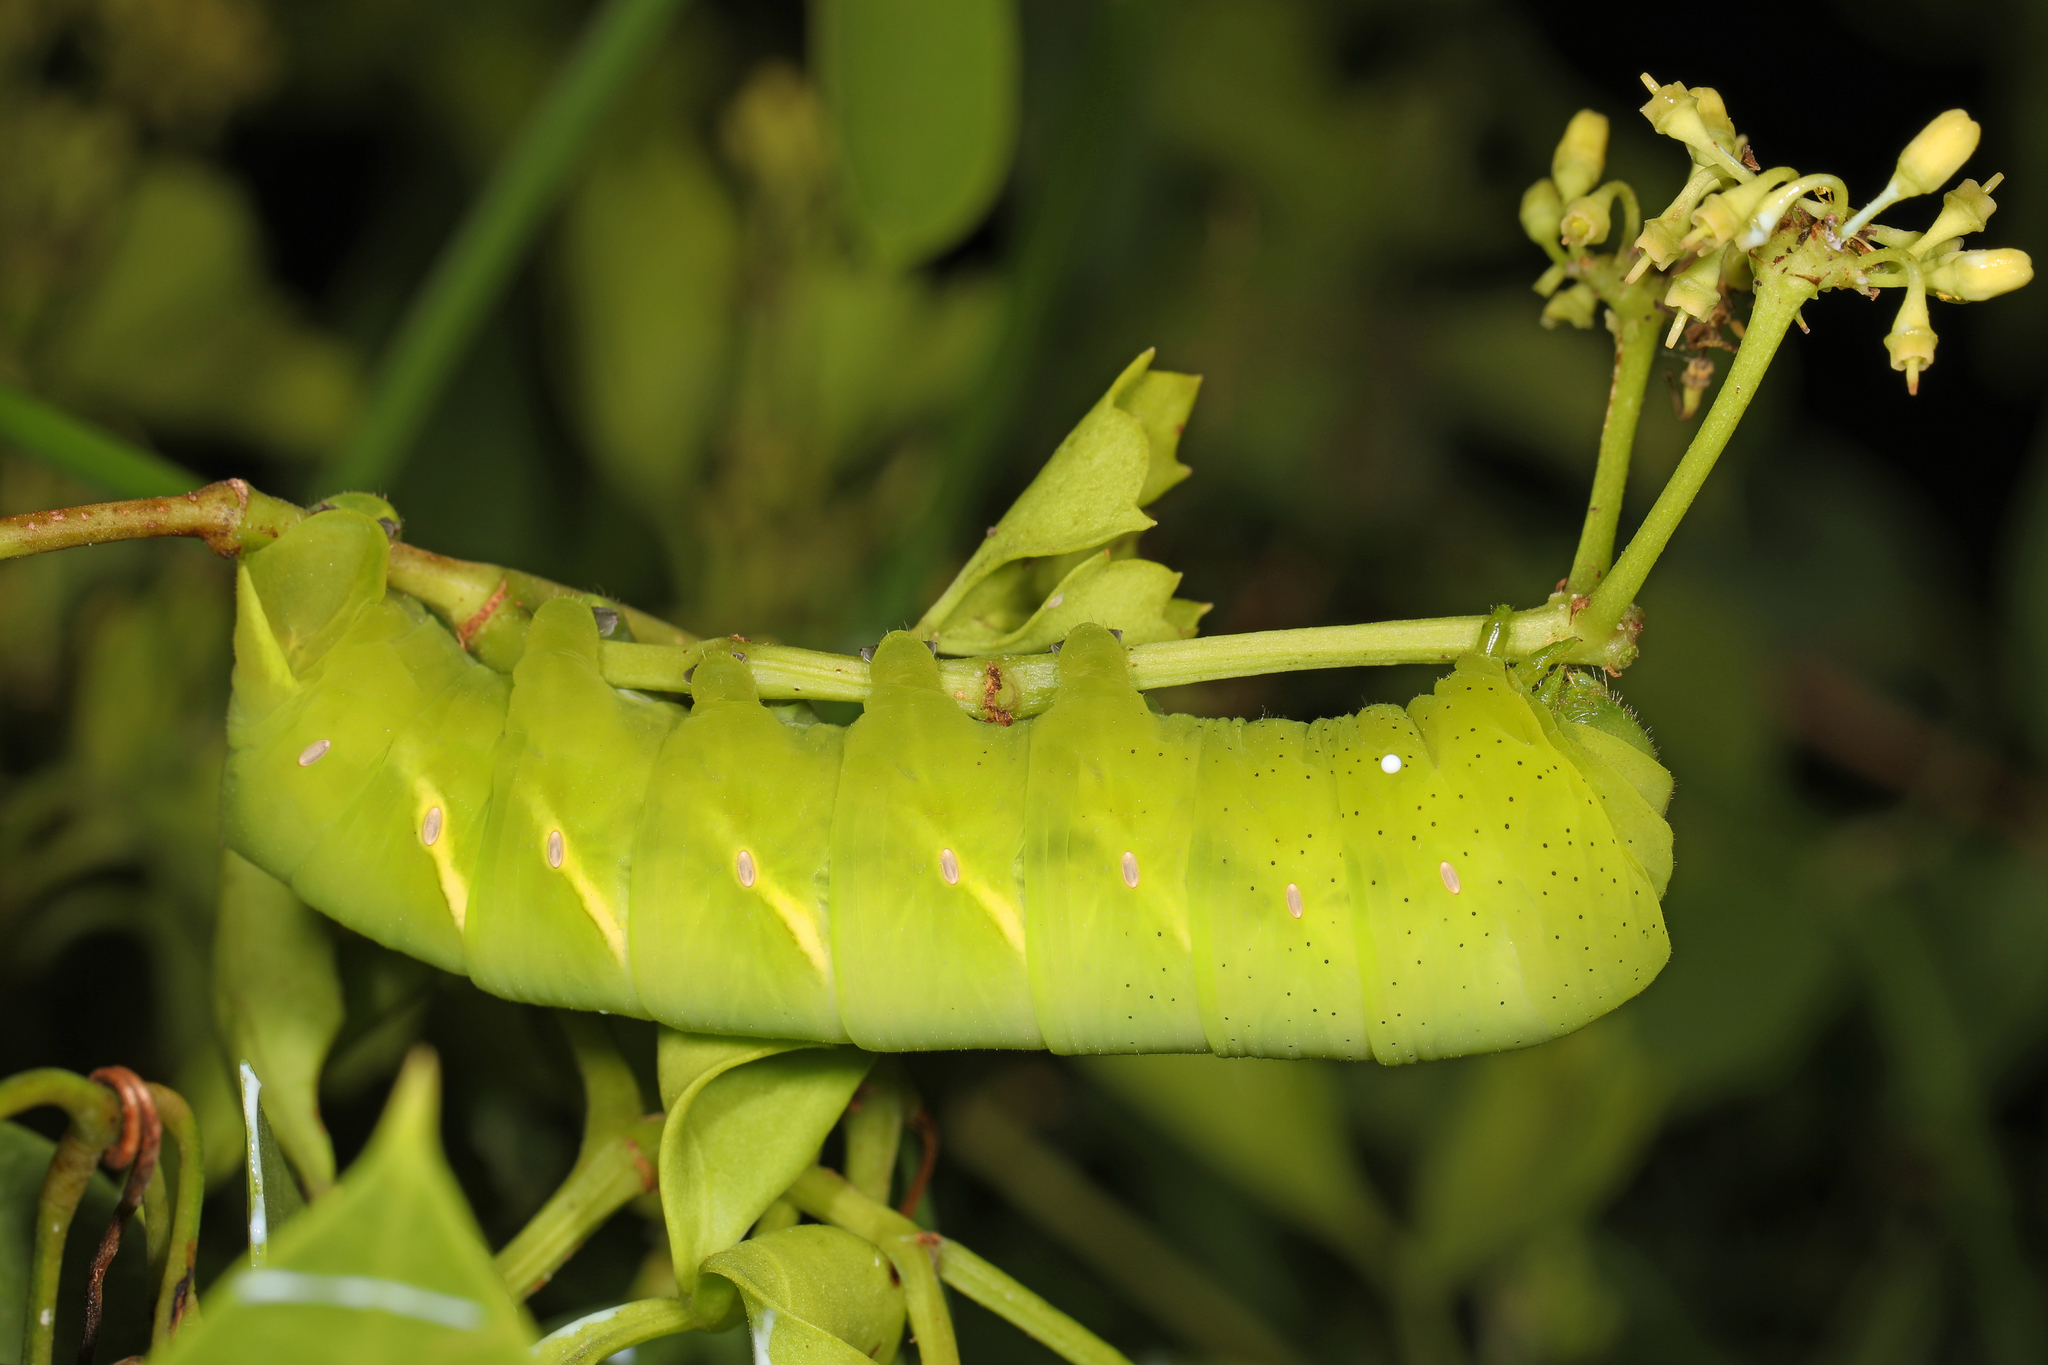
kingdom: Animalia
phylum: Arthropoda
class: Insecta
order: Lepidoptera
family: Sphingidae
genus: Eumorpha
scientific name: Eumorpha vitis
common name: Vine sphinx
